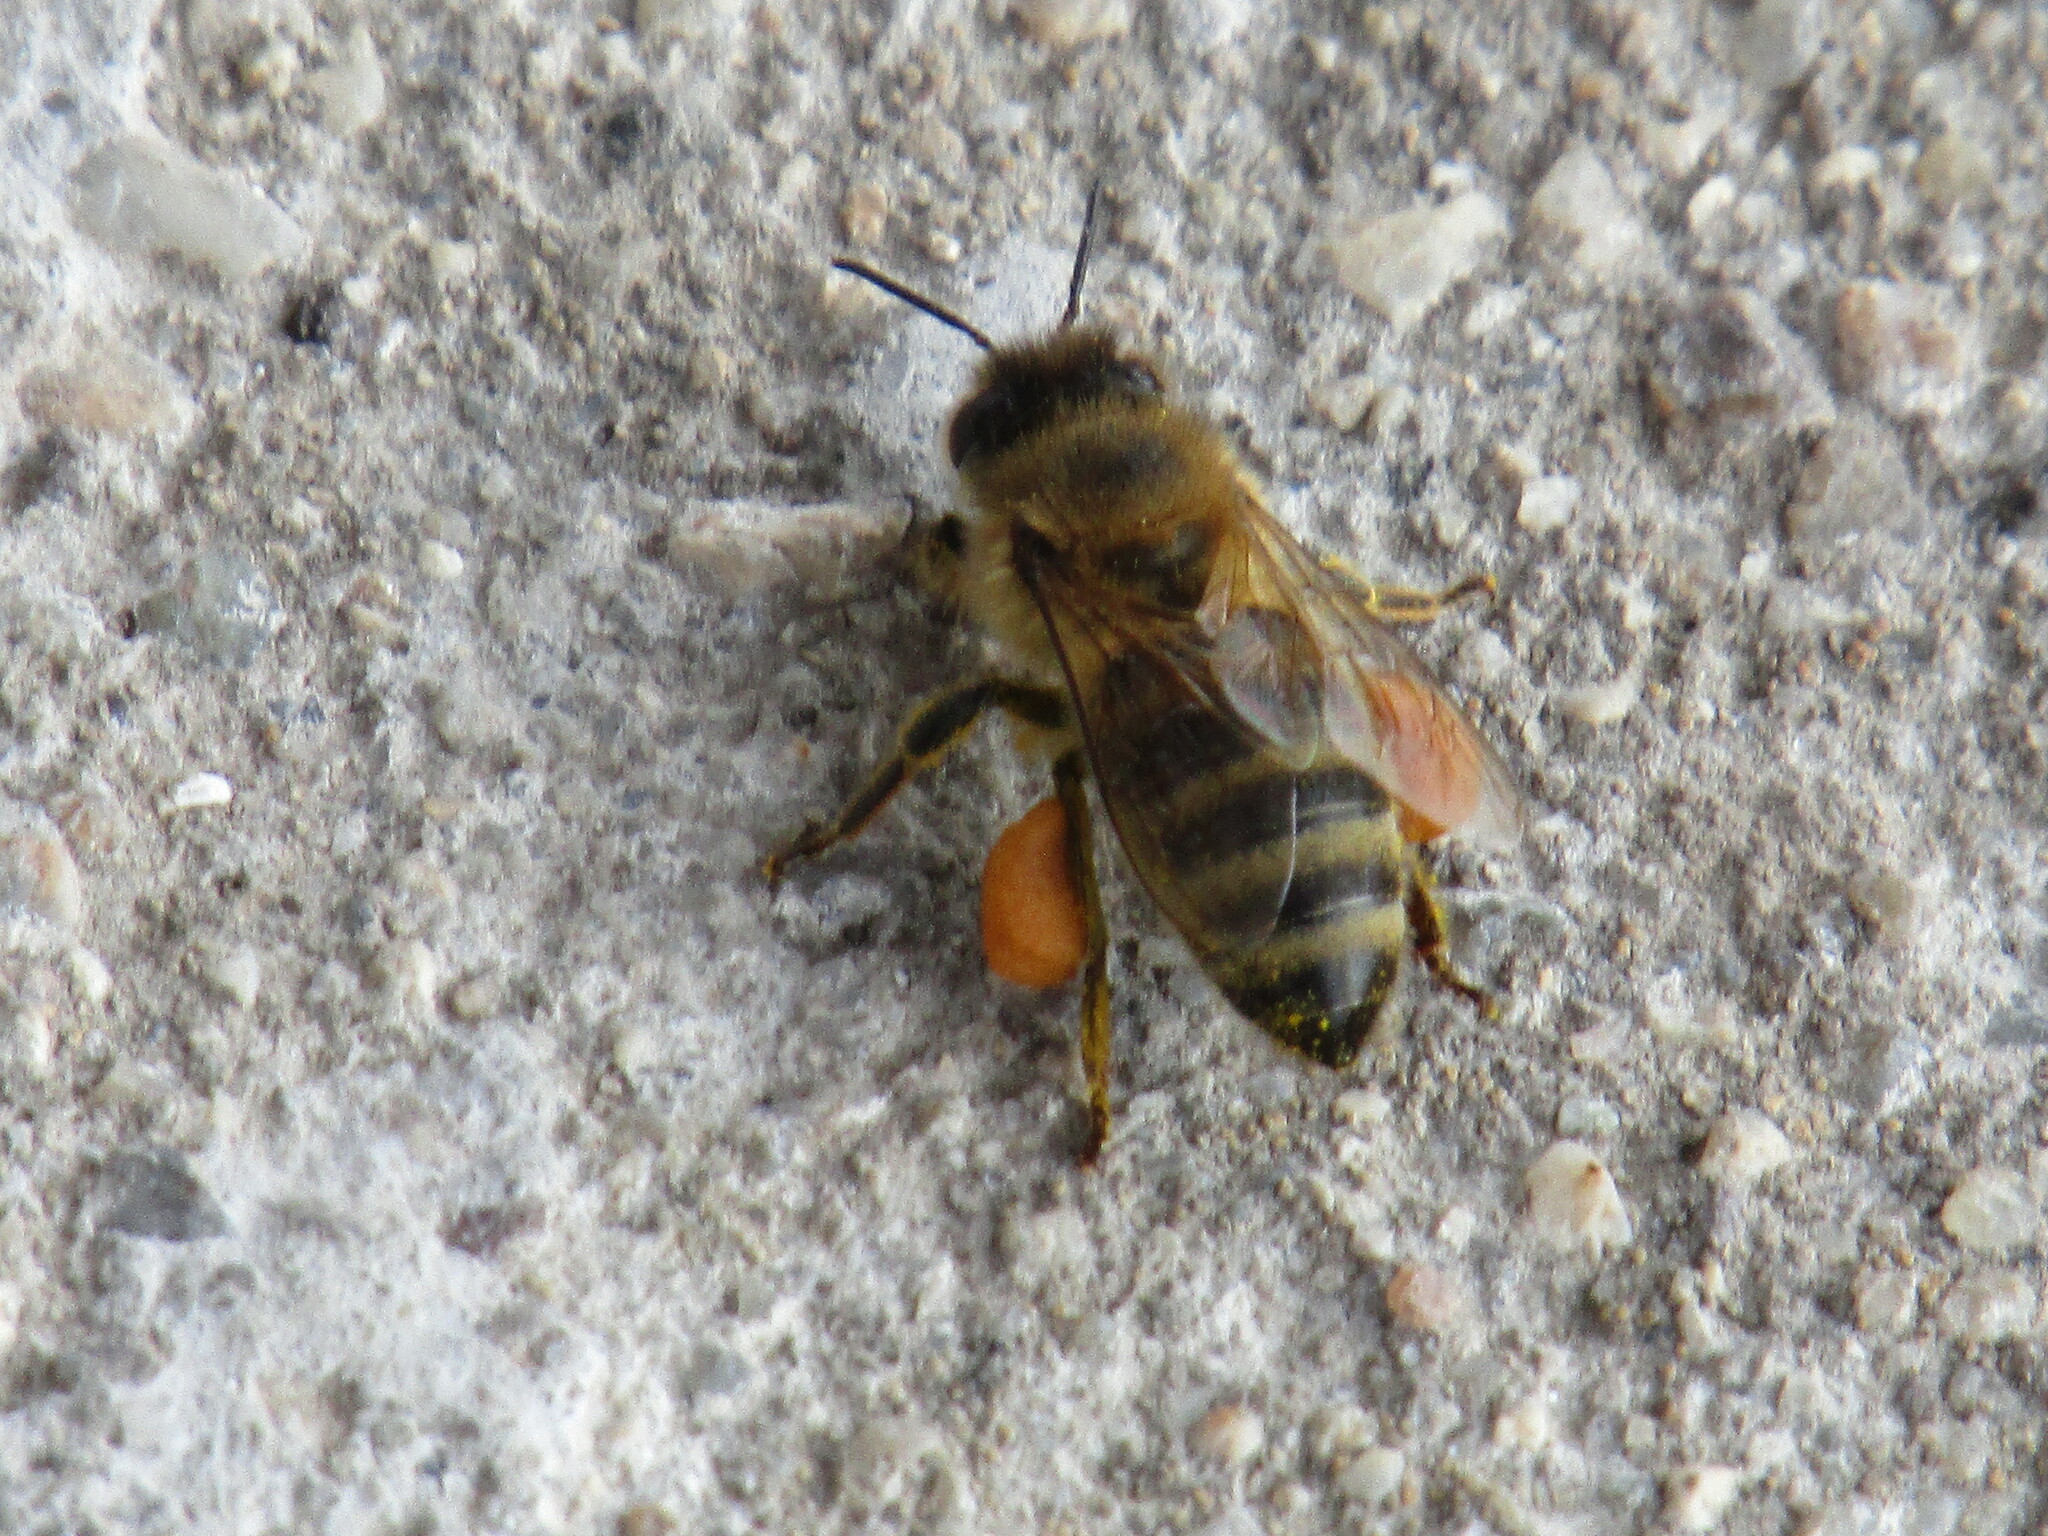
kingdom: Animalia
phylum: Arthropoda
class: Insecta
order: Hymenoptera
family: Apidae
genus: Apis
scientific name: Apis mellifera
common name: Honey bee
